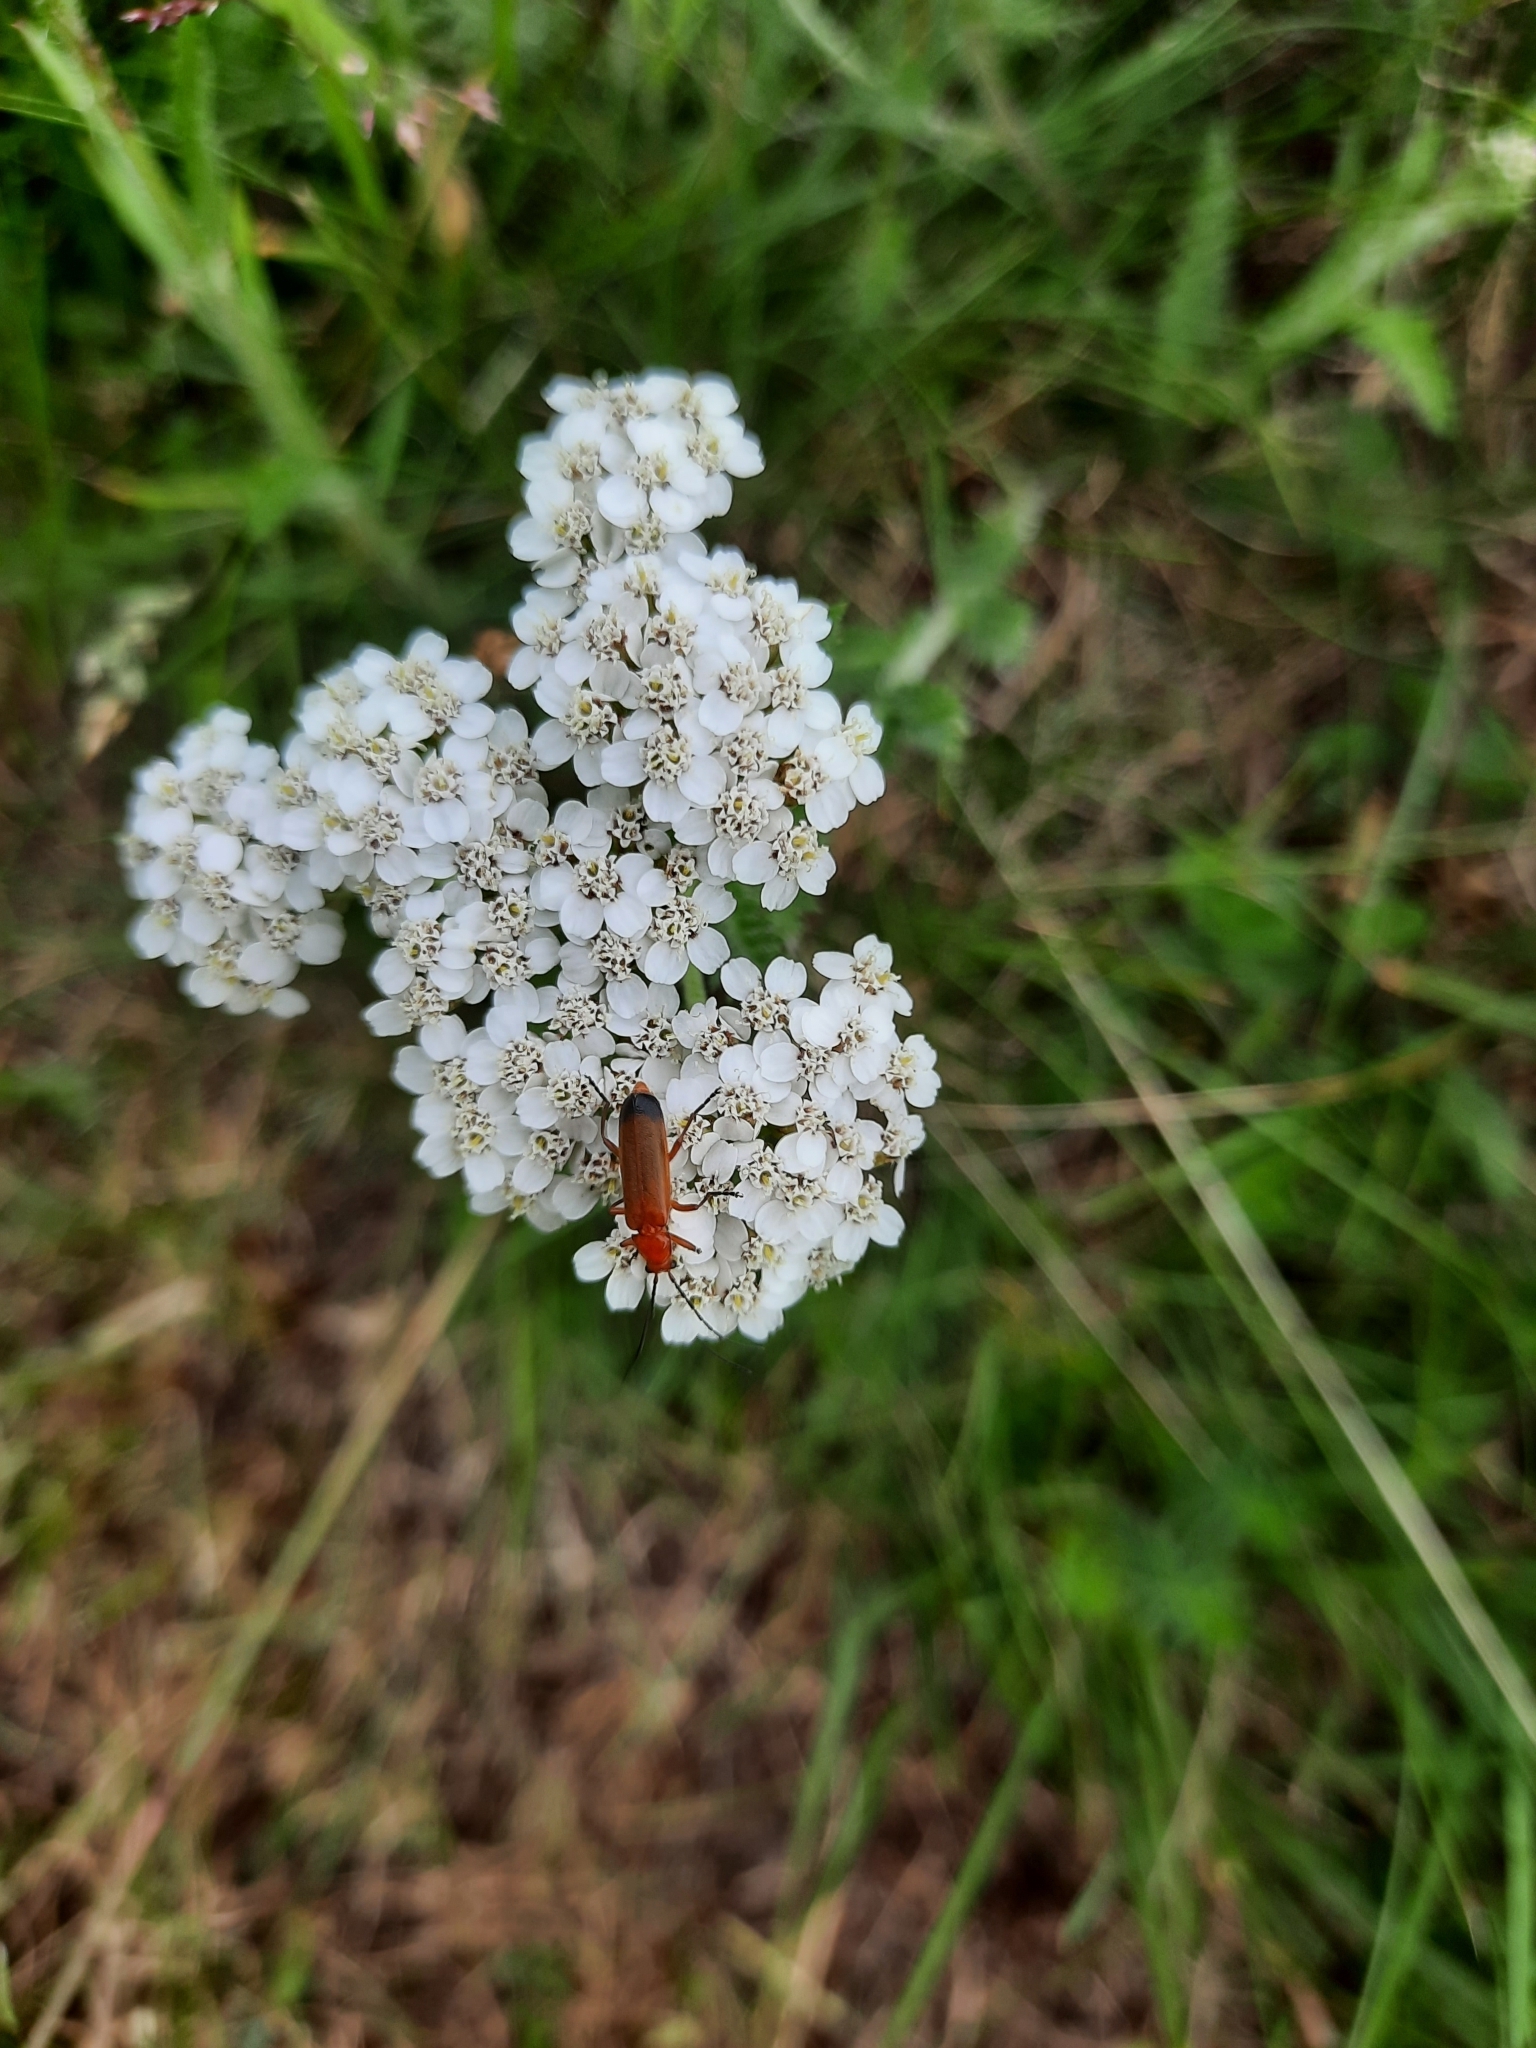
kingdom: Animalia
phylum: Arthropoda
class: Insecta
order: Coleoptera
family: Cantharidae
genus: Rhagonycha
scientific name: Rhagonycha fulva
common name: Common red soldier beetle
